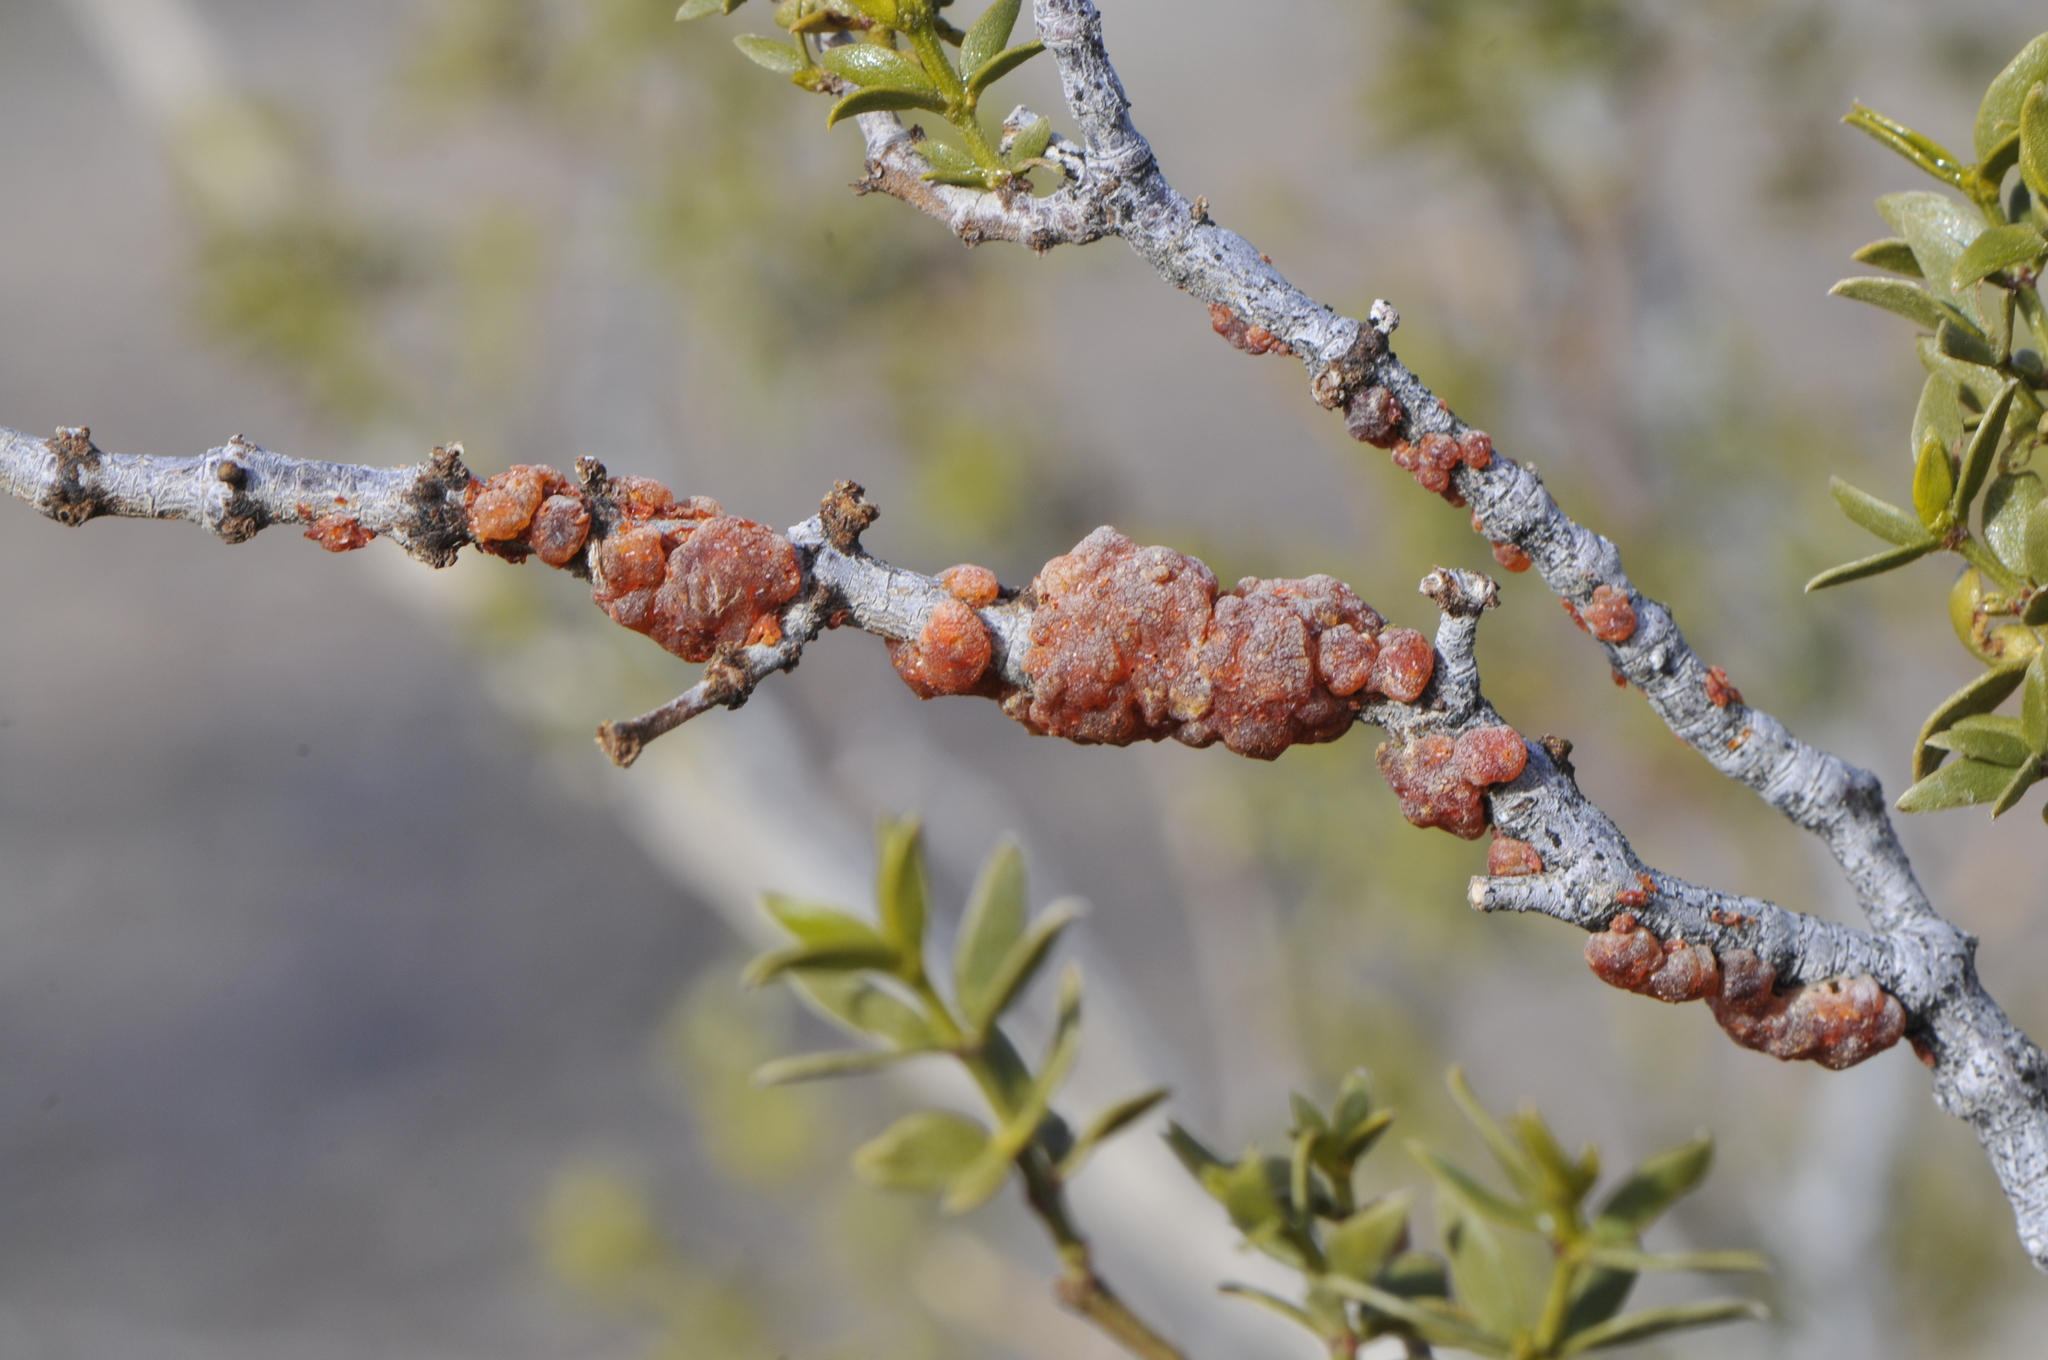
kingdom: Animalia
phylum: Arthropoda
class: Insecta
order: Hemiptera
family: Kerriidae
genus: Tachardiella
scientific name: Tachardiella larreae
